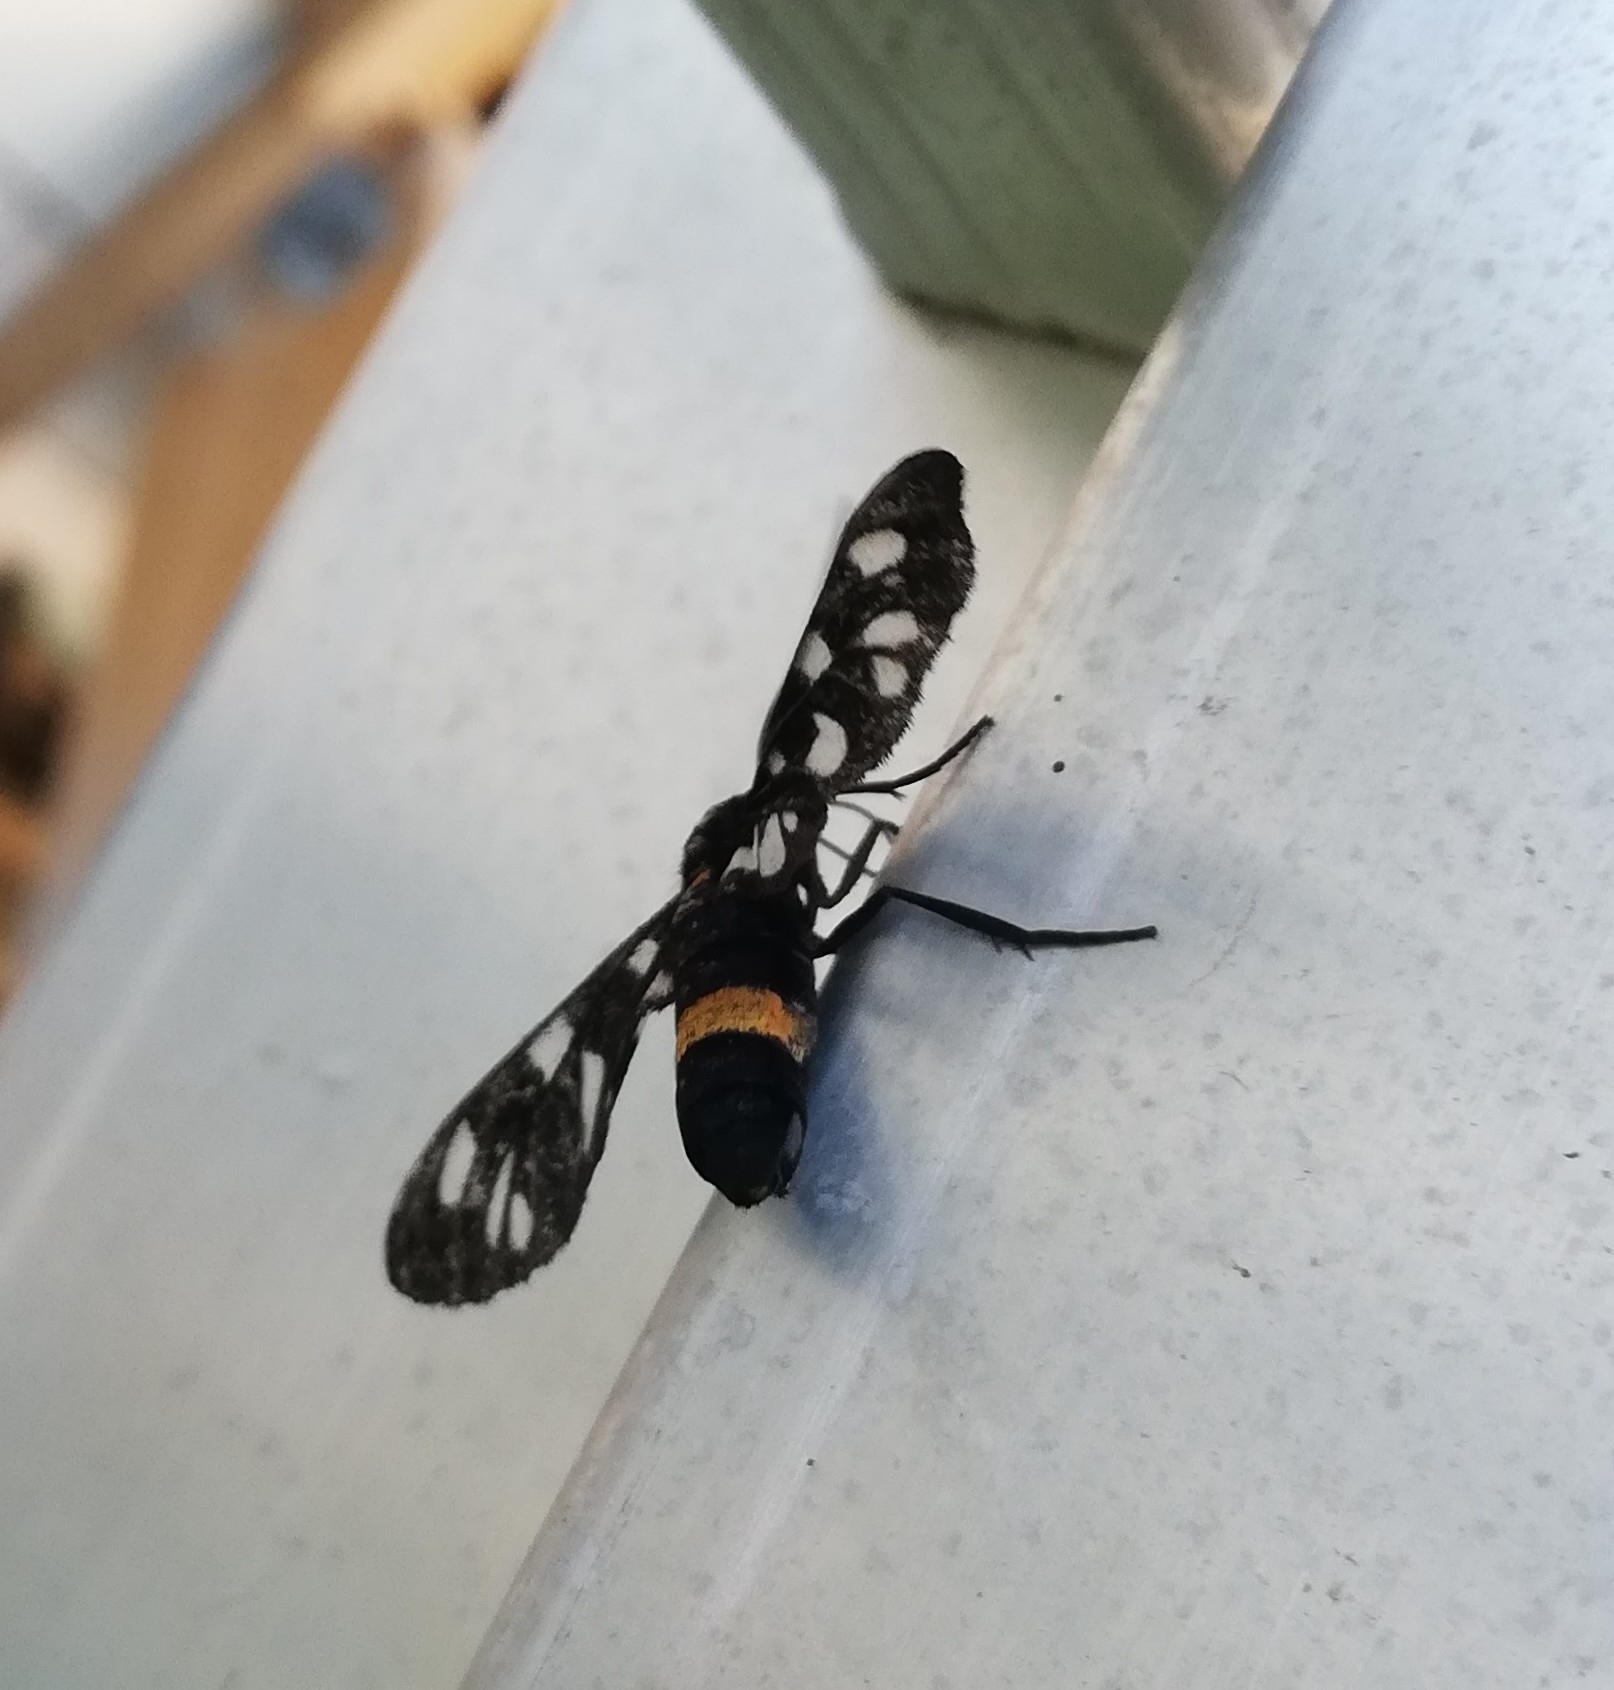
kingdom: Animalia
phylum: Arthropoda
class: Insecta
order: Lepidoptera
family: Erebidae
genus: Amata
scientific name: Amata phegea
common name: Nine-spotted
